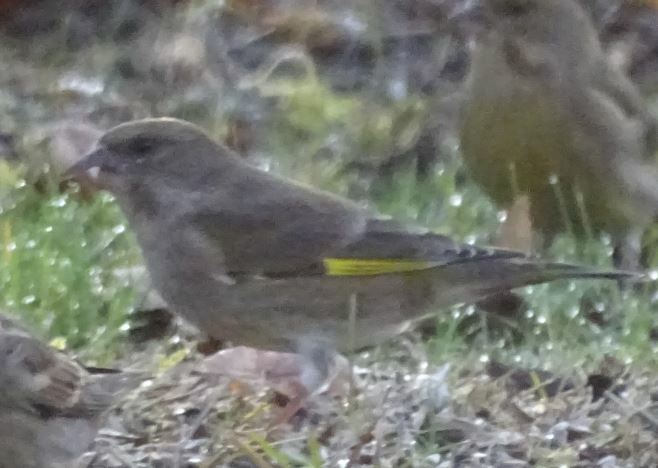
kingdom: Plantae
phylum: Tracheophyta
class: Liliopsida
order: Poales
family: Poaceae
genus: Chloris
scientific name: Chloris chloris
